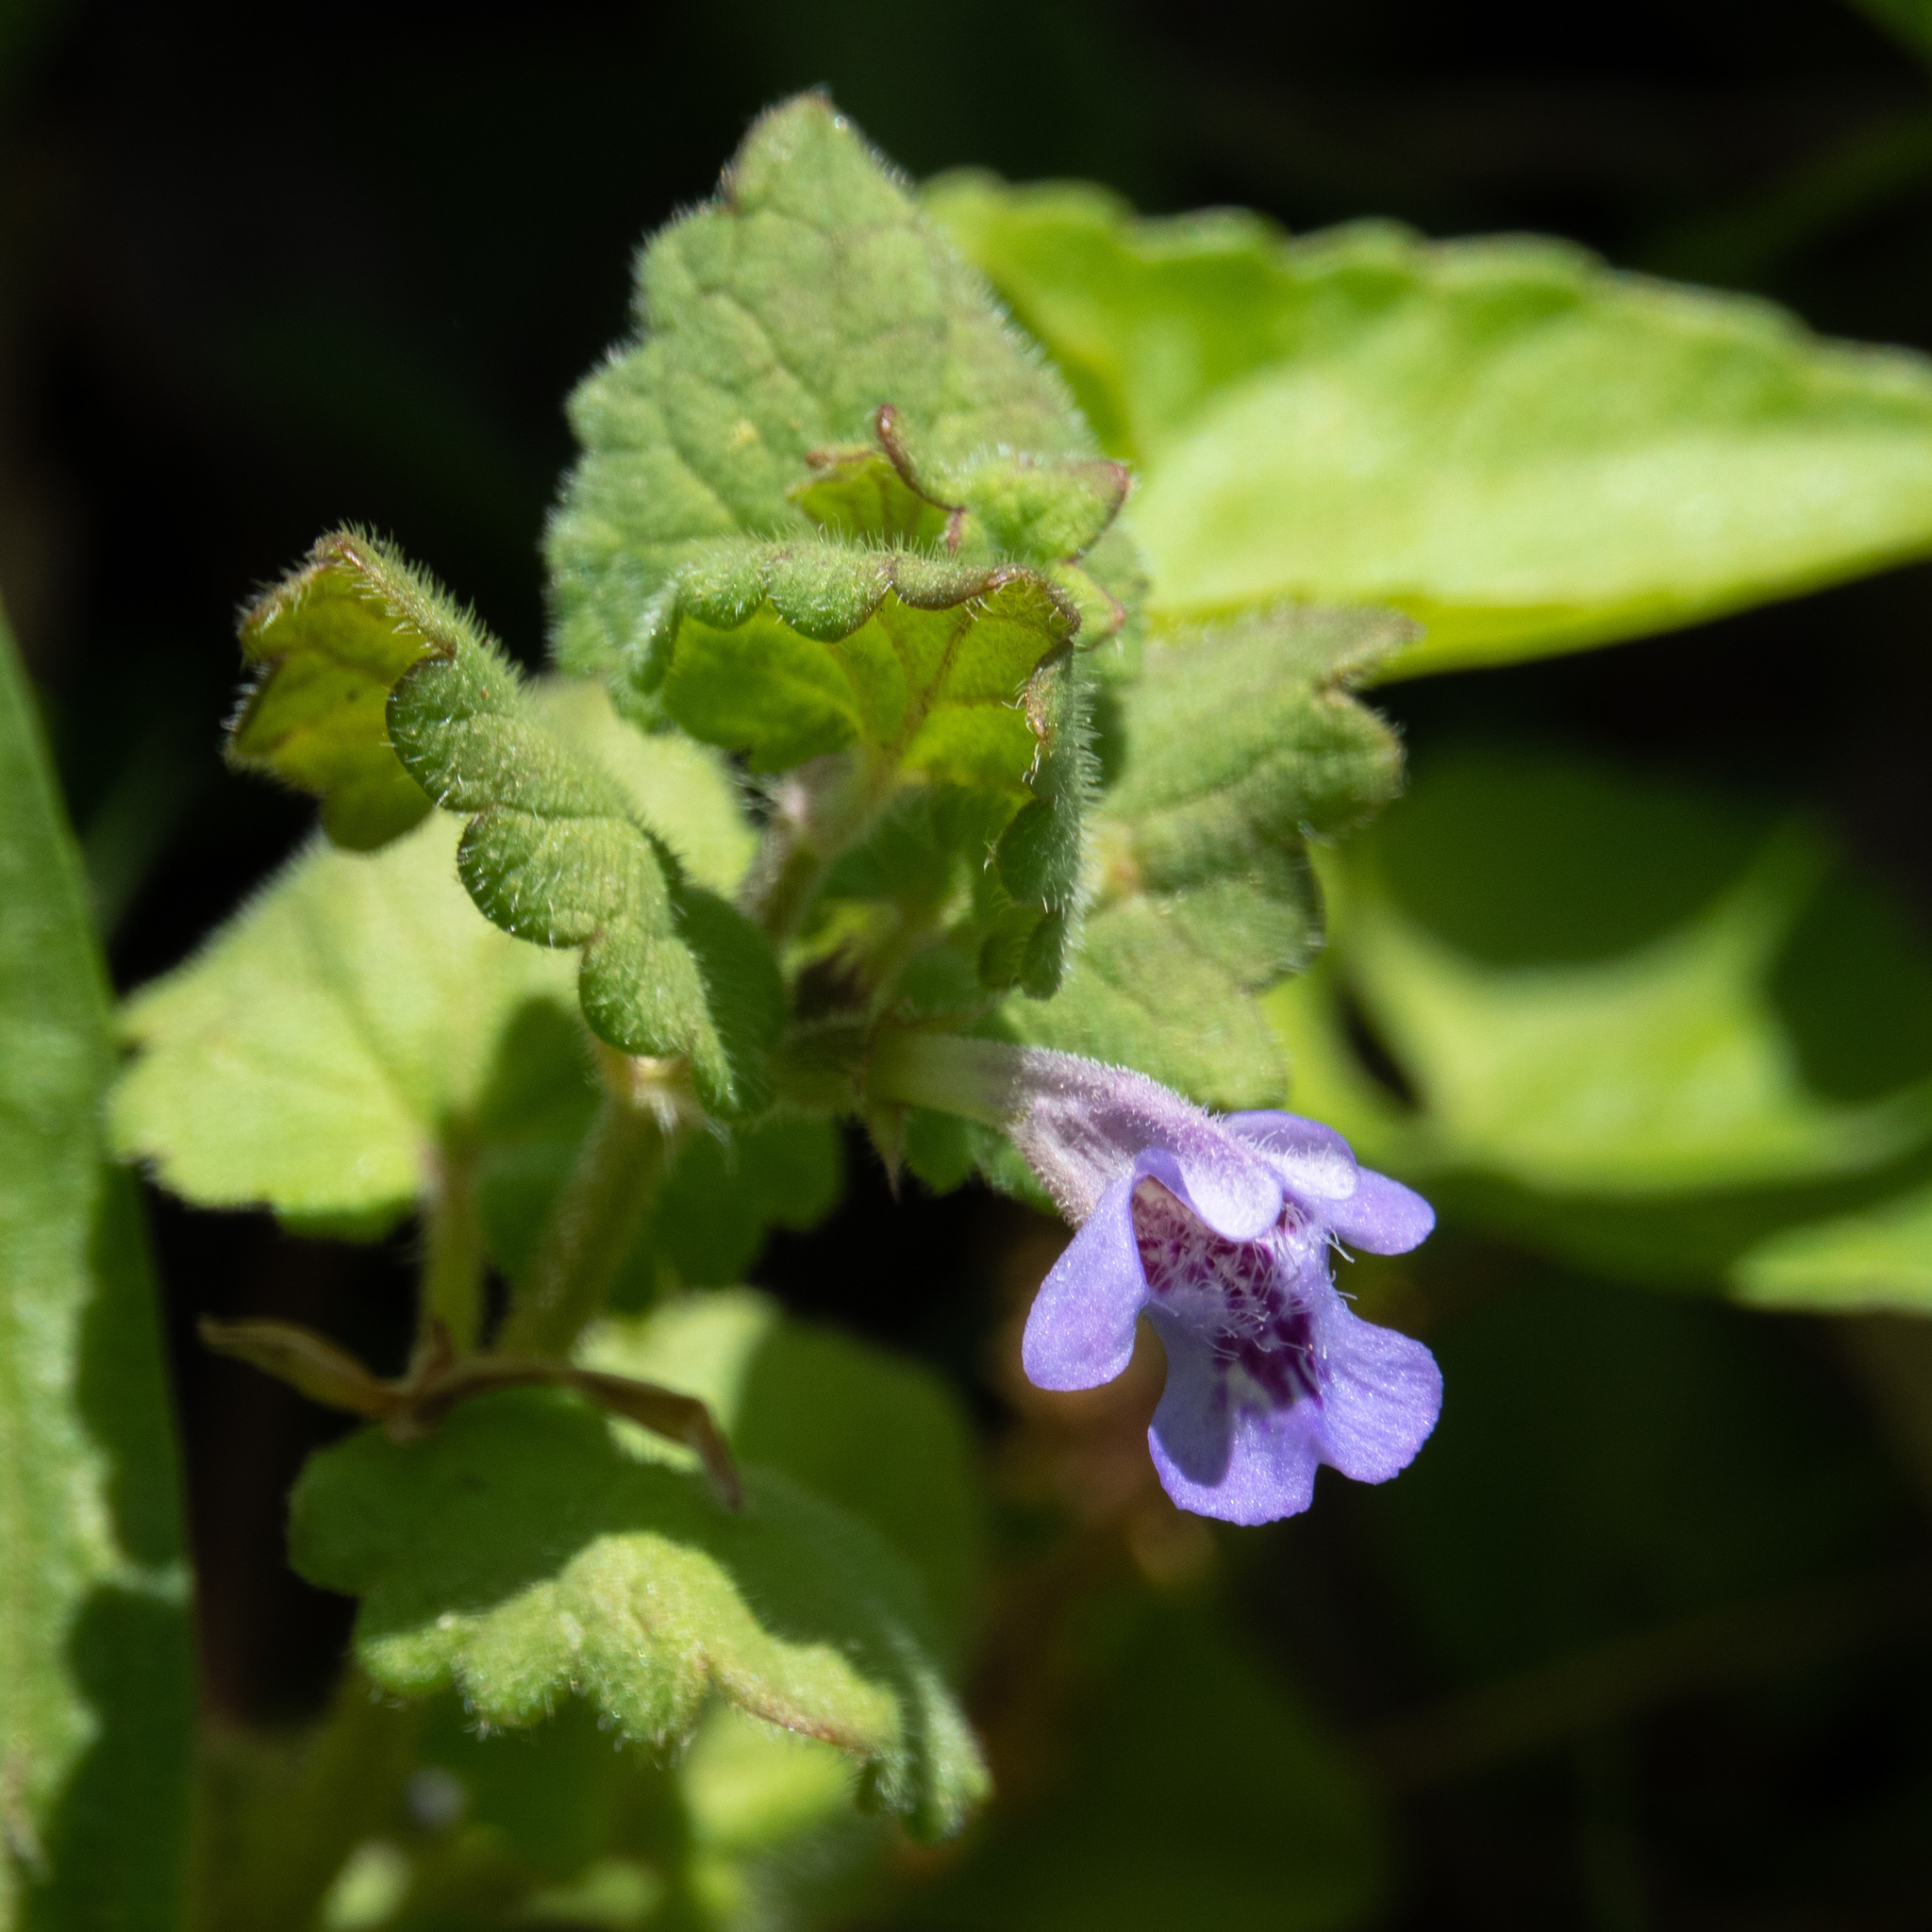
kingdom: Plantae
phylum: Tracheophyta
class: Magnoliopsida
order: Lamiales
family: Lamiaceae
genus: Glechoma
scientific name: Glechoma hederacea
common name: Ground ivy
